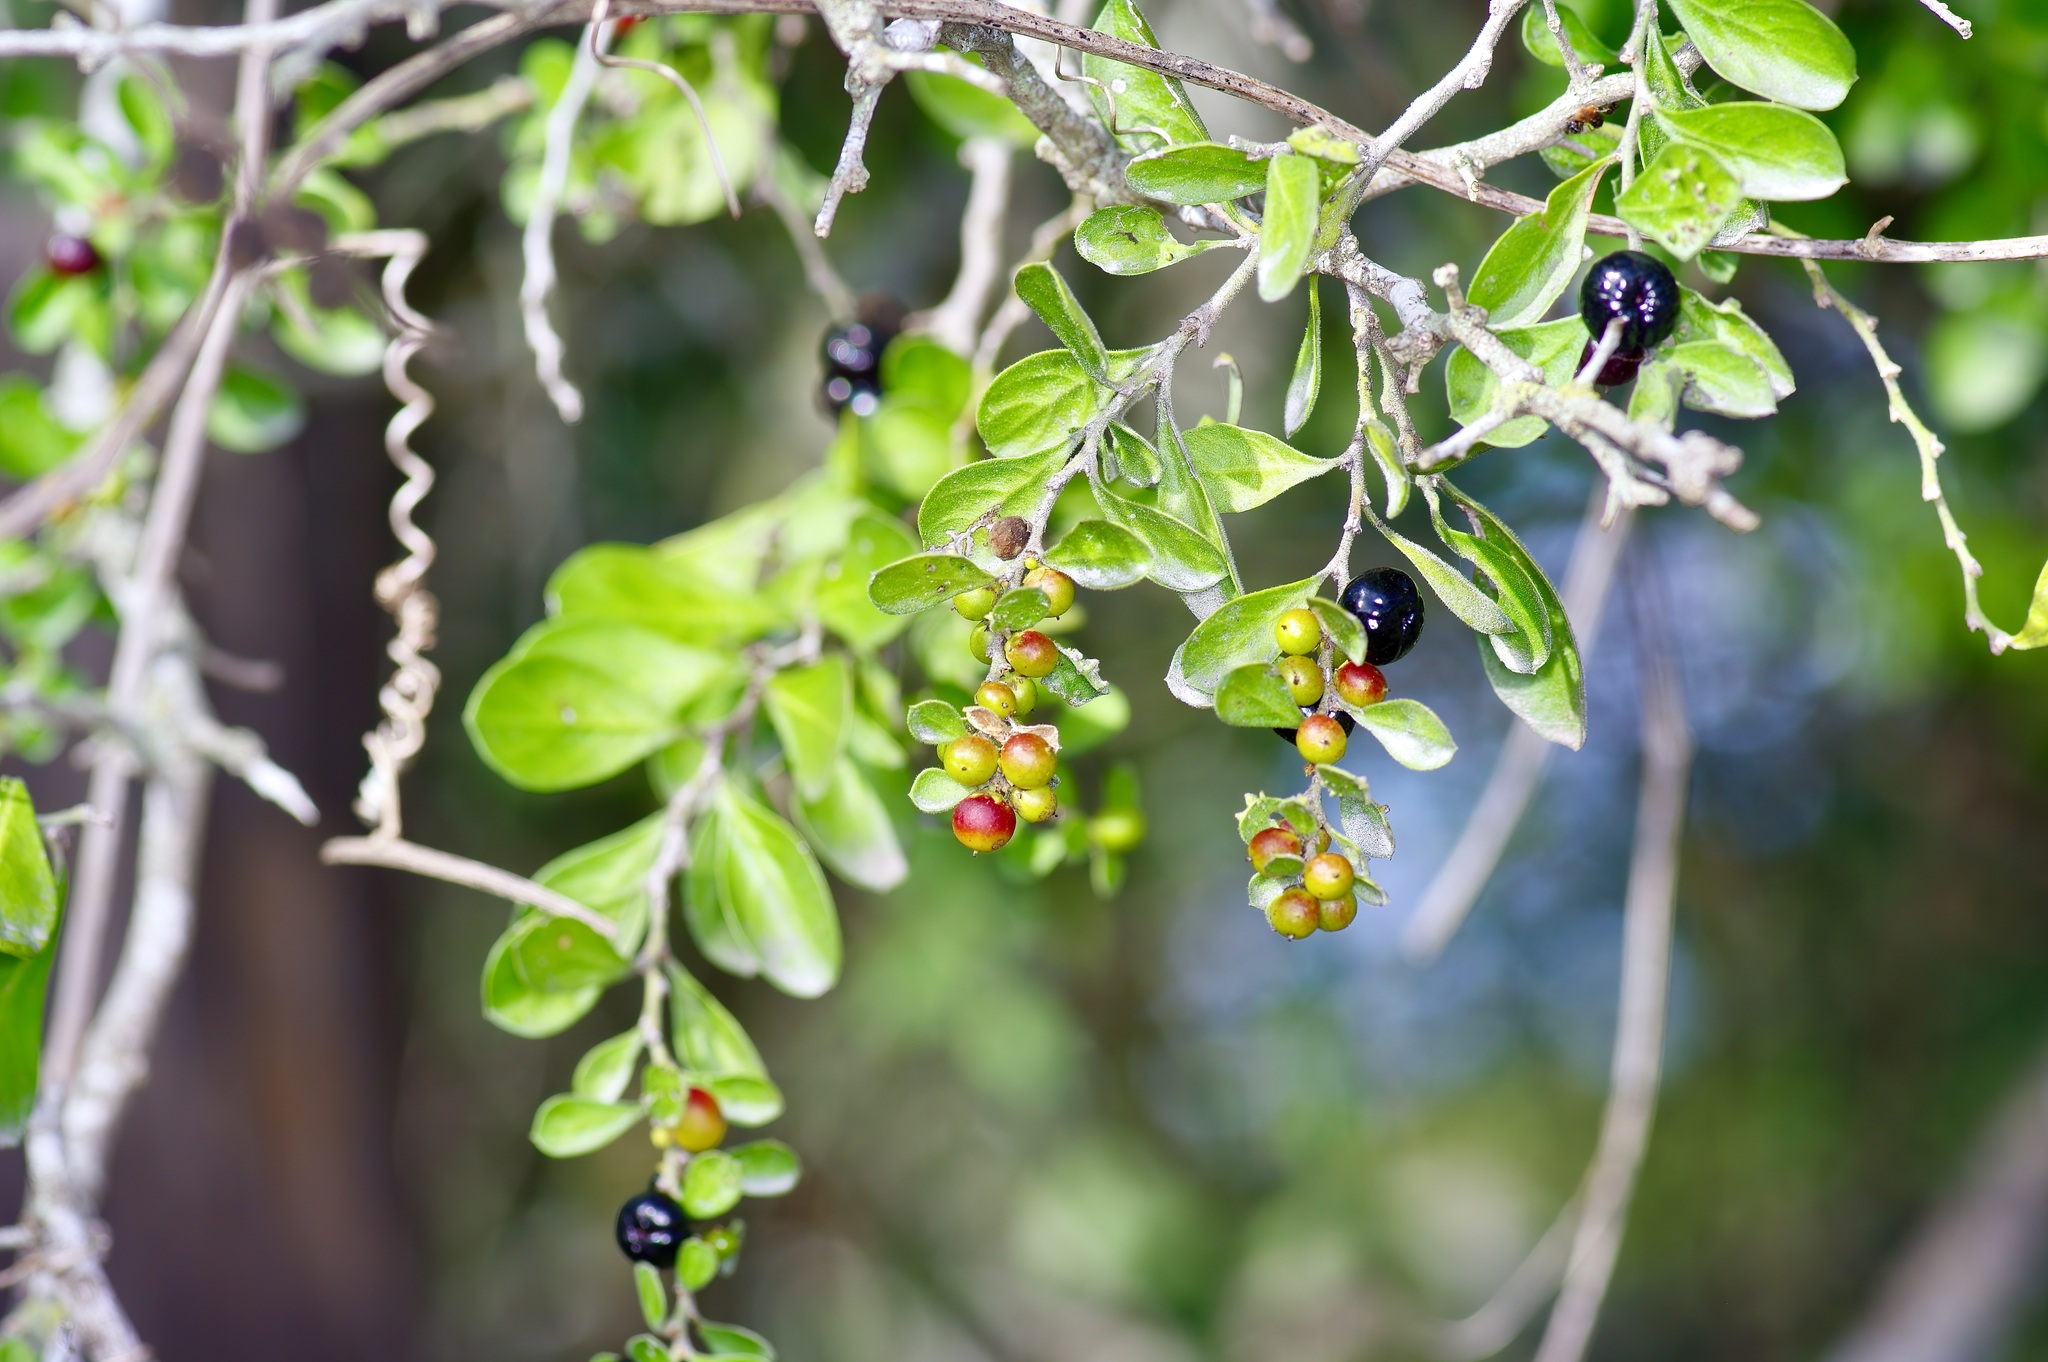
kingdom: Plantae
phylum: Tracheophyta
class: Magnoliopsida
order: Rosales
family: Rhamnaceae
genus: Condalia
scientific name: Condalia hookeri
